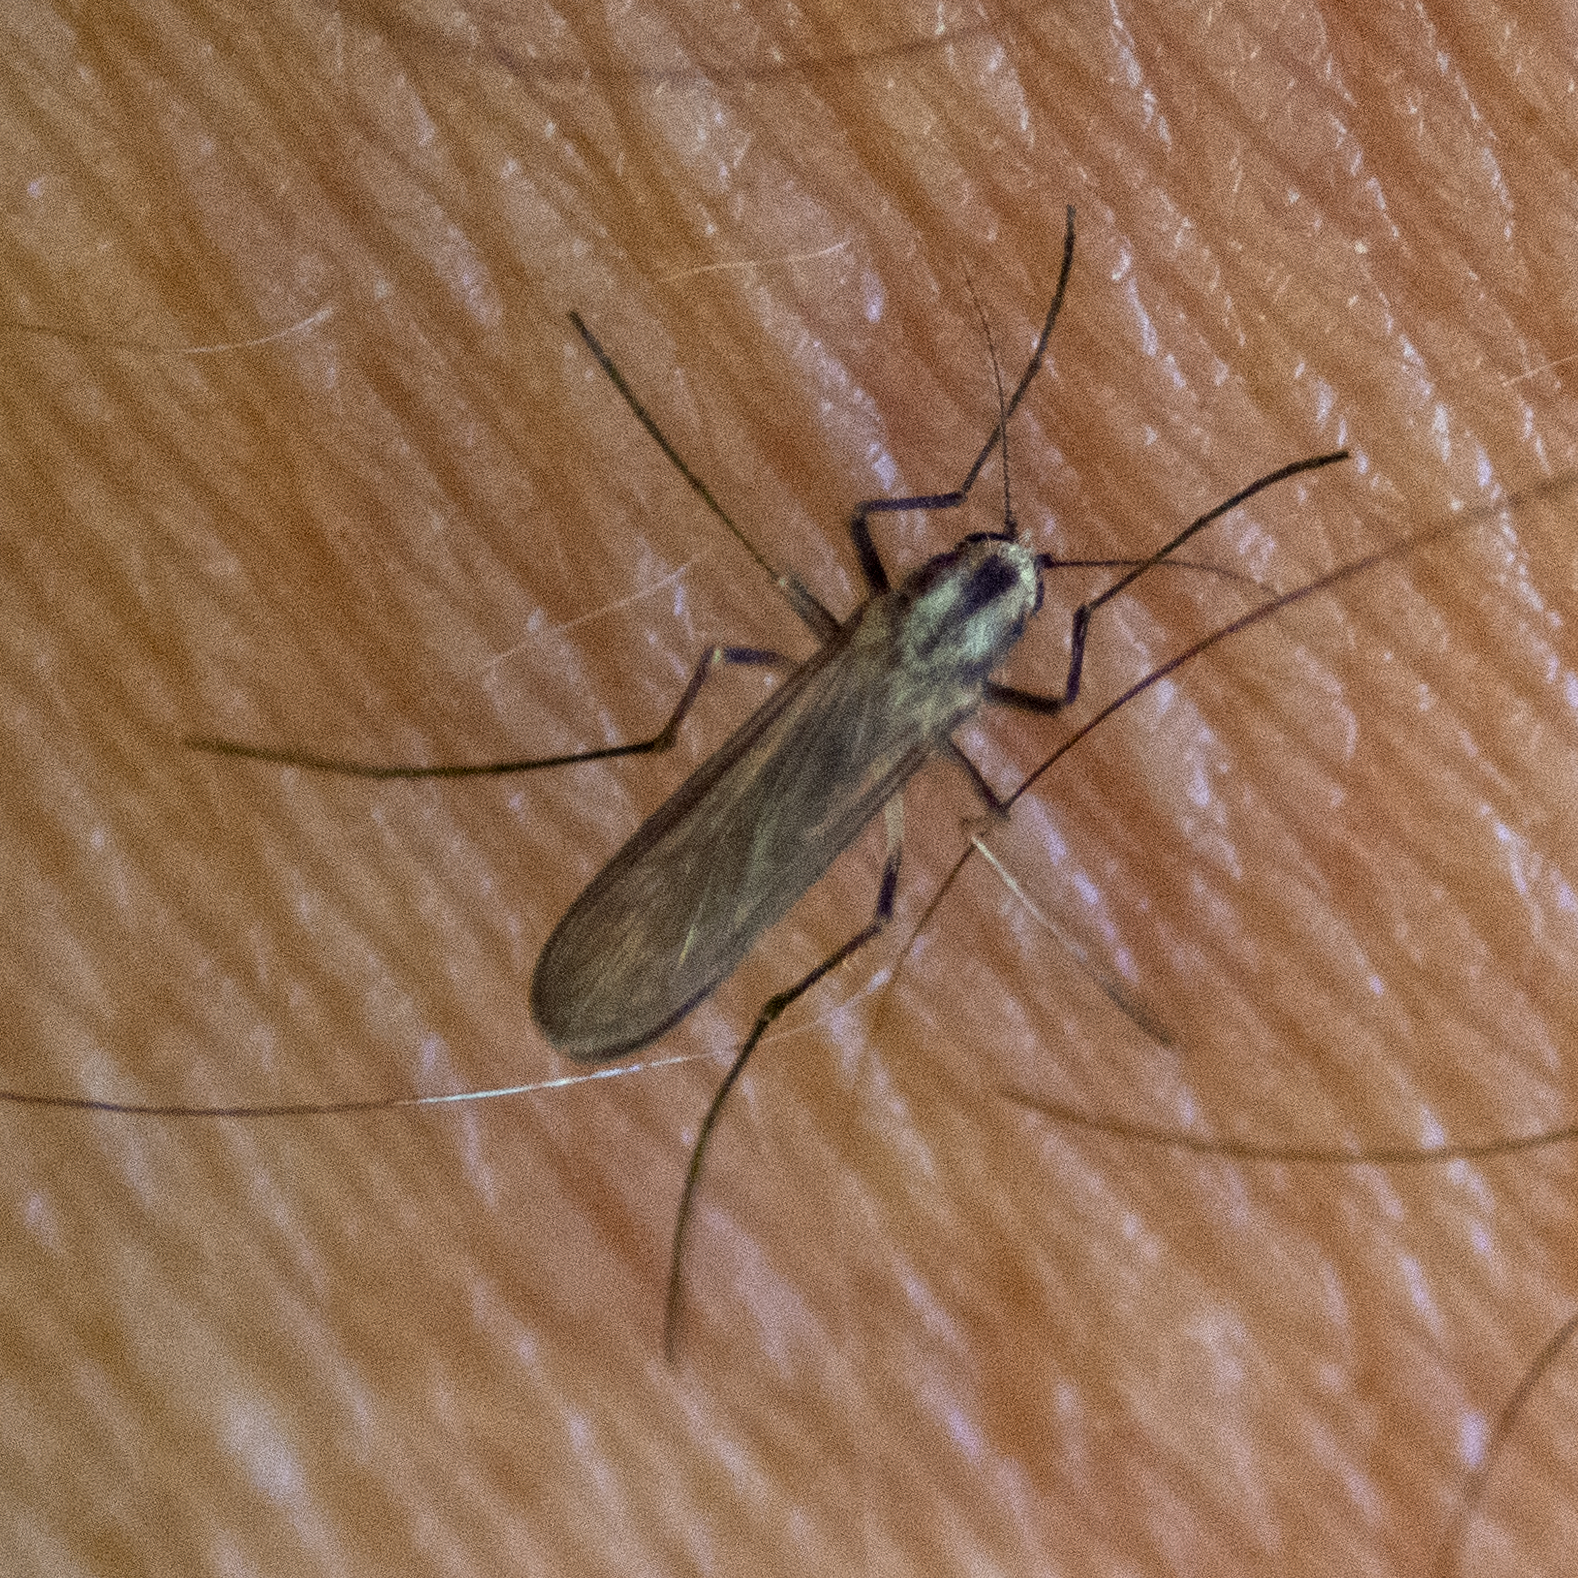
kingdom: Animalia
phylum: Arthropoda
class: Insecta
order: Diptera
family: Culicidae
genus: Aedes
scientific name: Aedes trivittatus
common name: Plains floodwater mosquito
